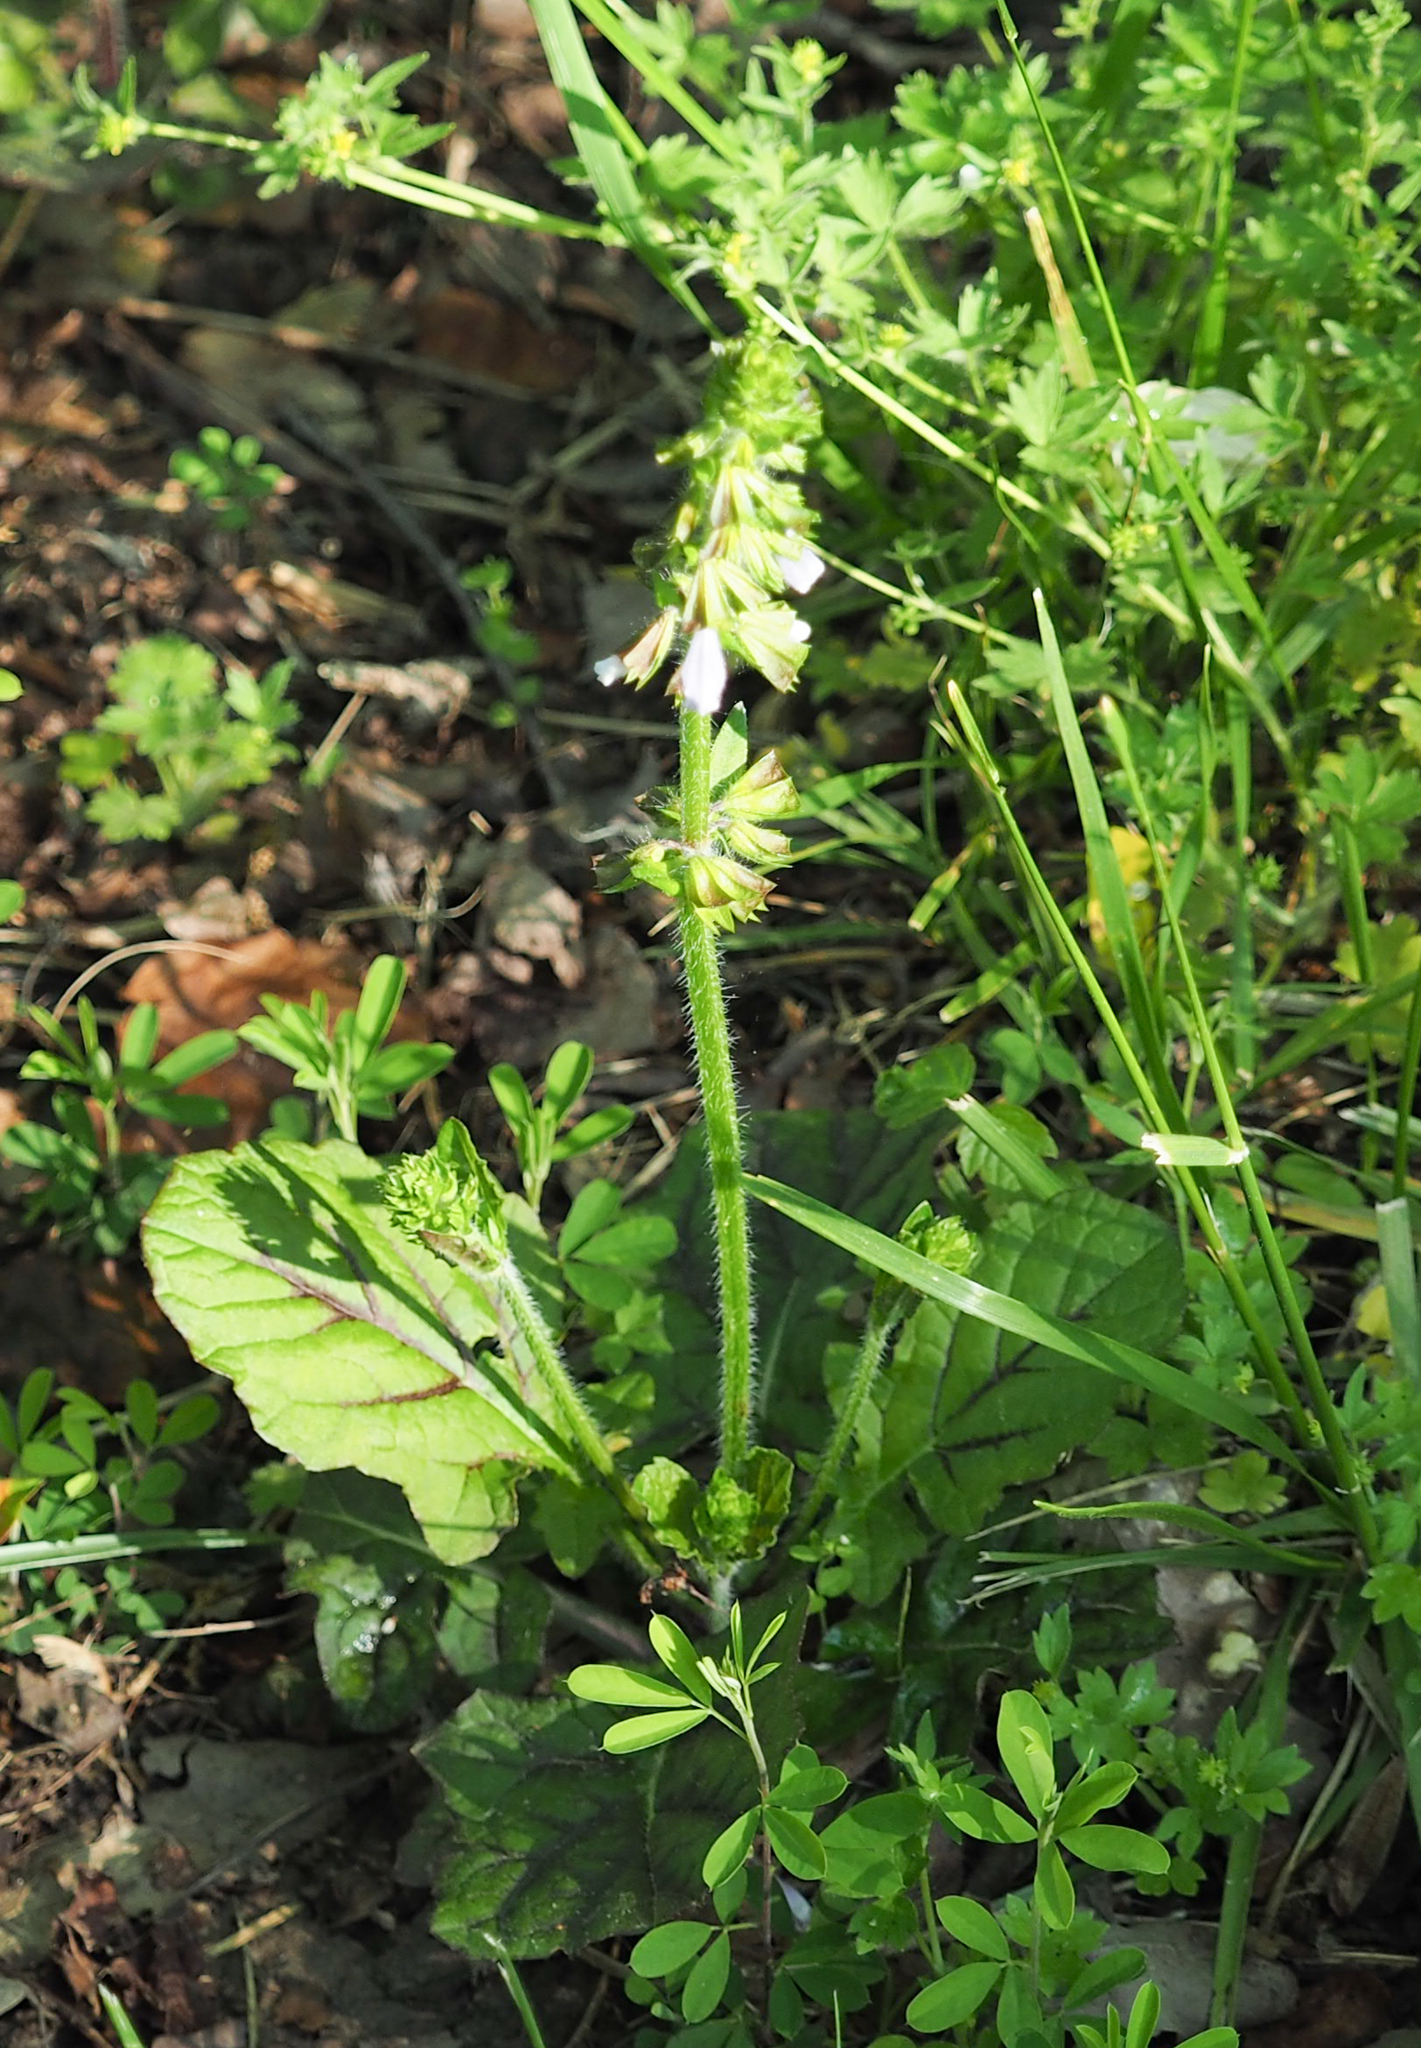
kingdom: Plantae
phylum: Tracheophyta
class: Magnoliopsida
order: Lamiales
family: Lamiaceae
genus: Salvia
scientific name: Salvia lyrata
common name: Cancerweed
